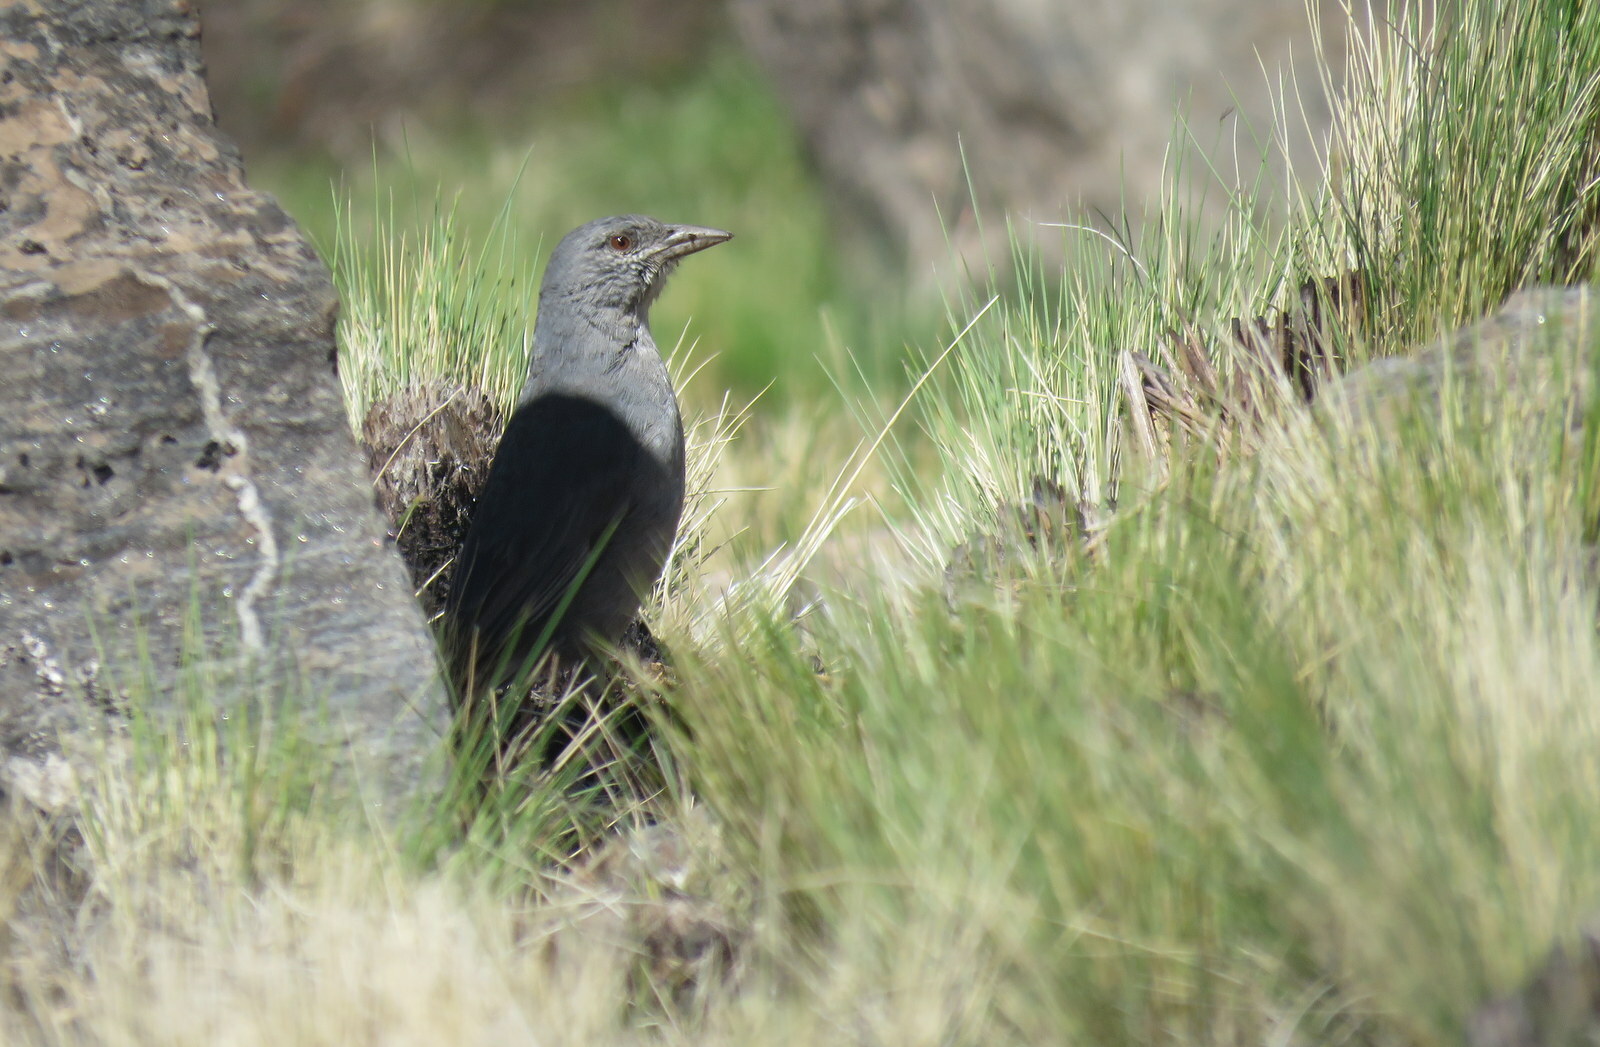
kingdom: Animalia
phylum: Chordata
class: Aves
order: Passeriformes
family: Thraupidae
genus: Idiopsar
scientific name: Idiopsar brachyurus
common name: Short-tailed finch
